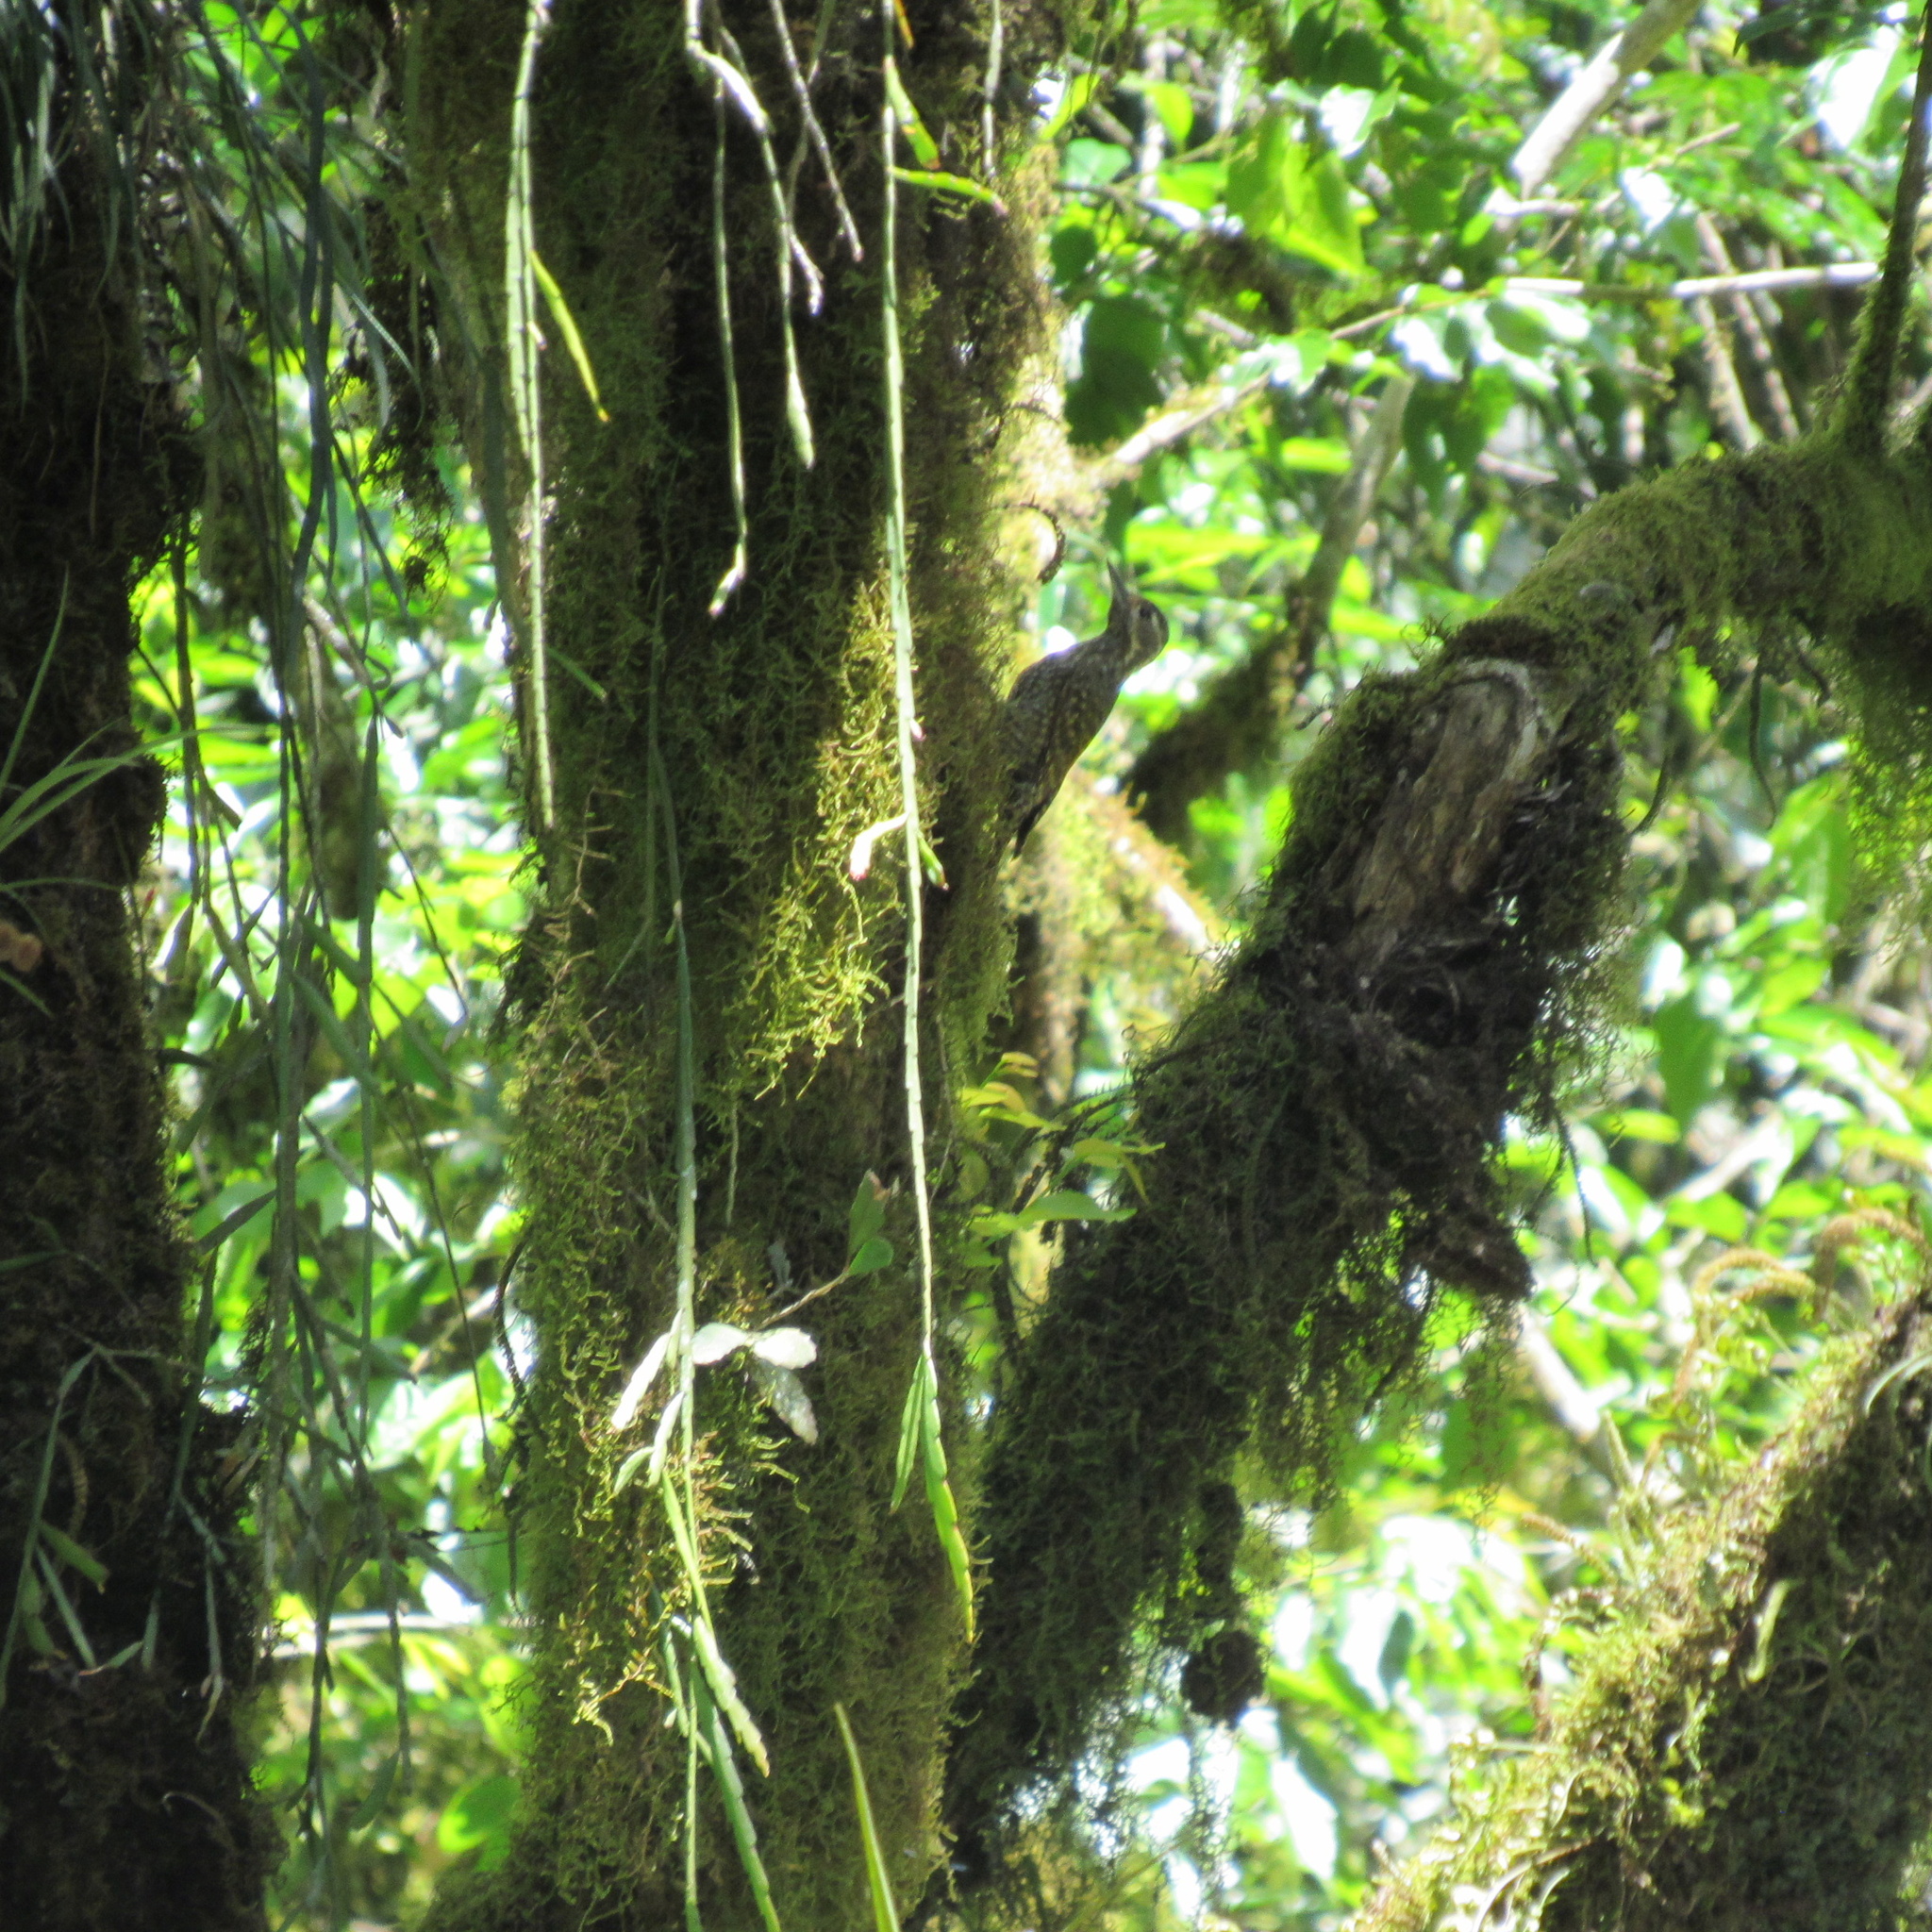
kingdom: Animalia
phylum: Chordata
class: Aves
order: Piciformes
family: Picidae
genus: Veniliornis
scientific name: Veniliornis spilogaster
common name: White-spotted woodpecker
